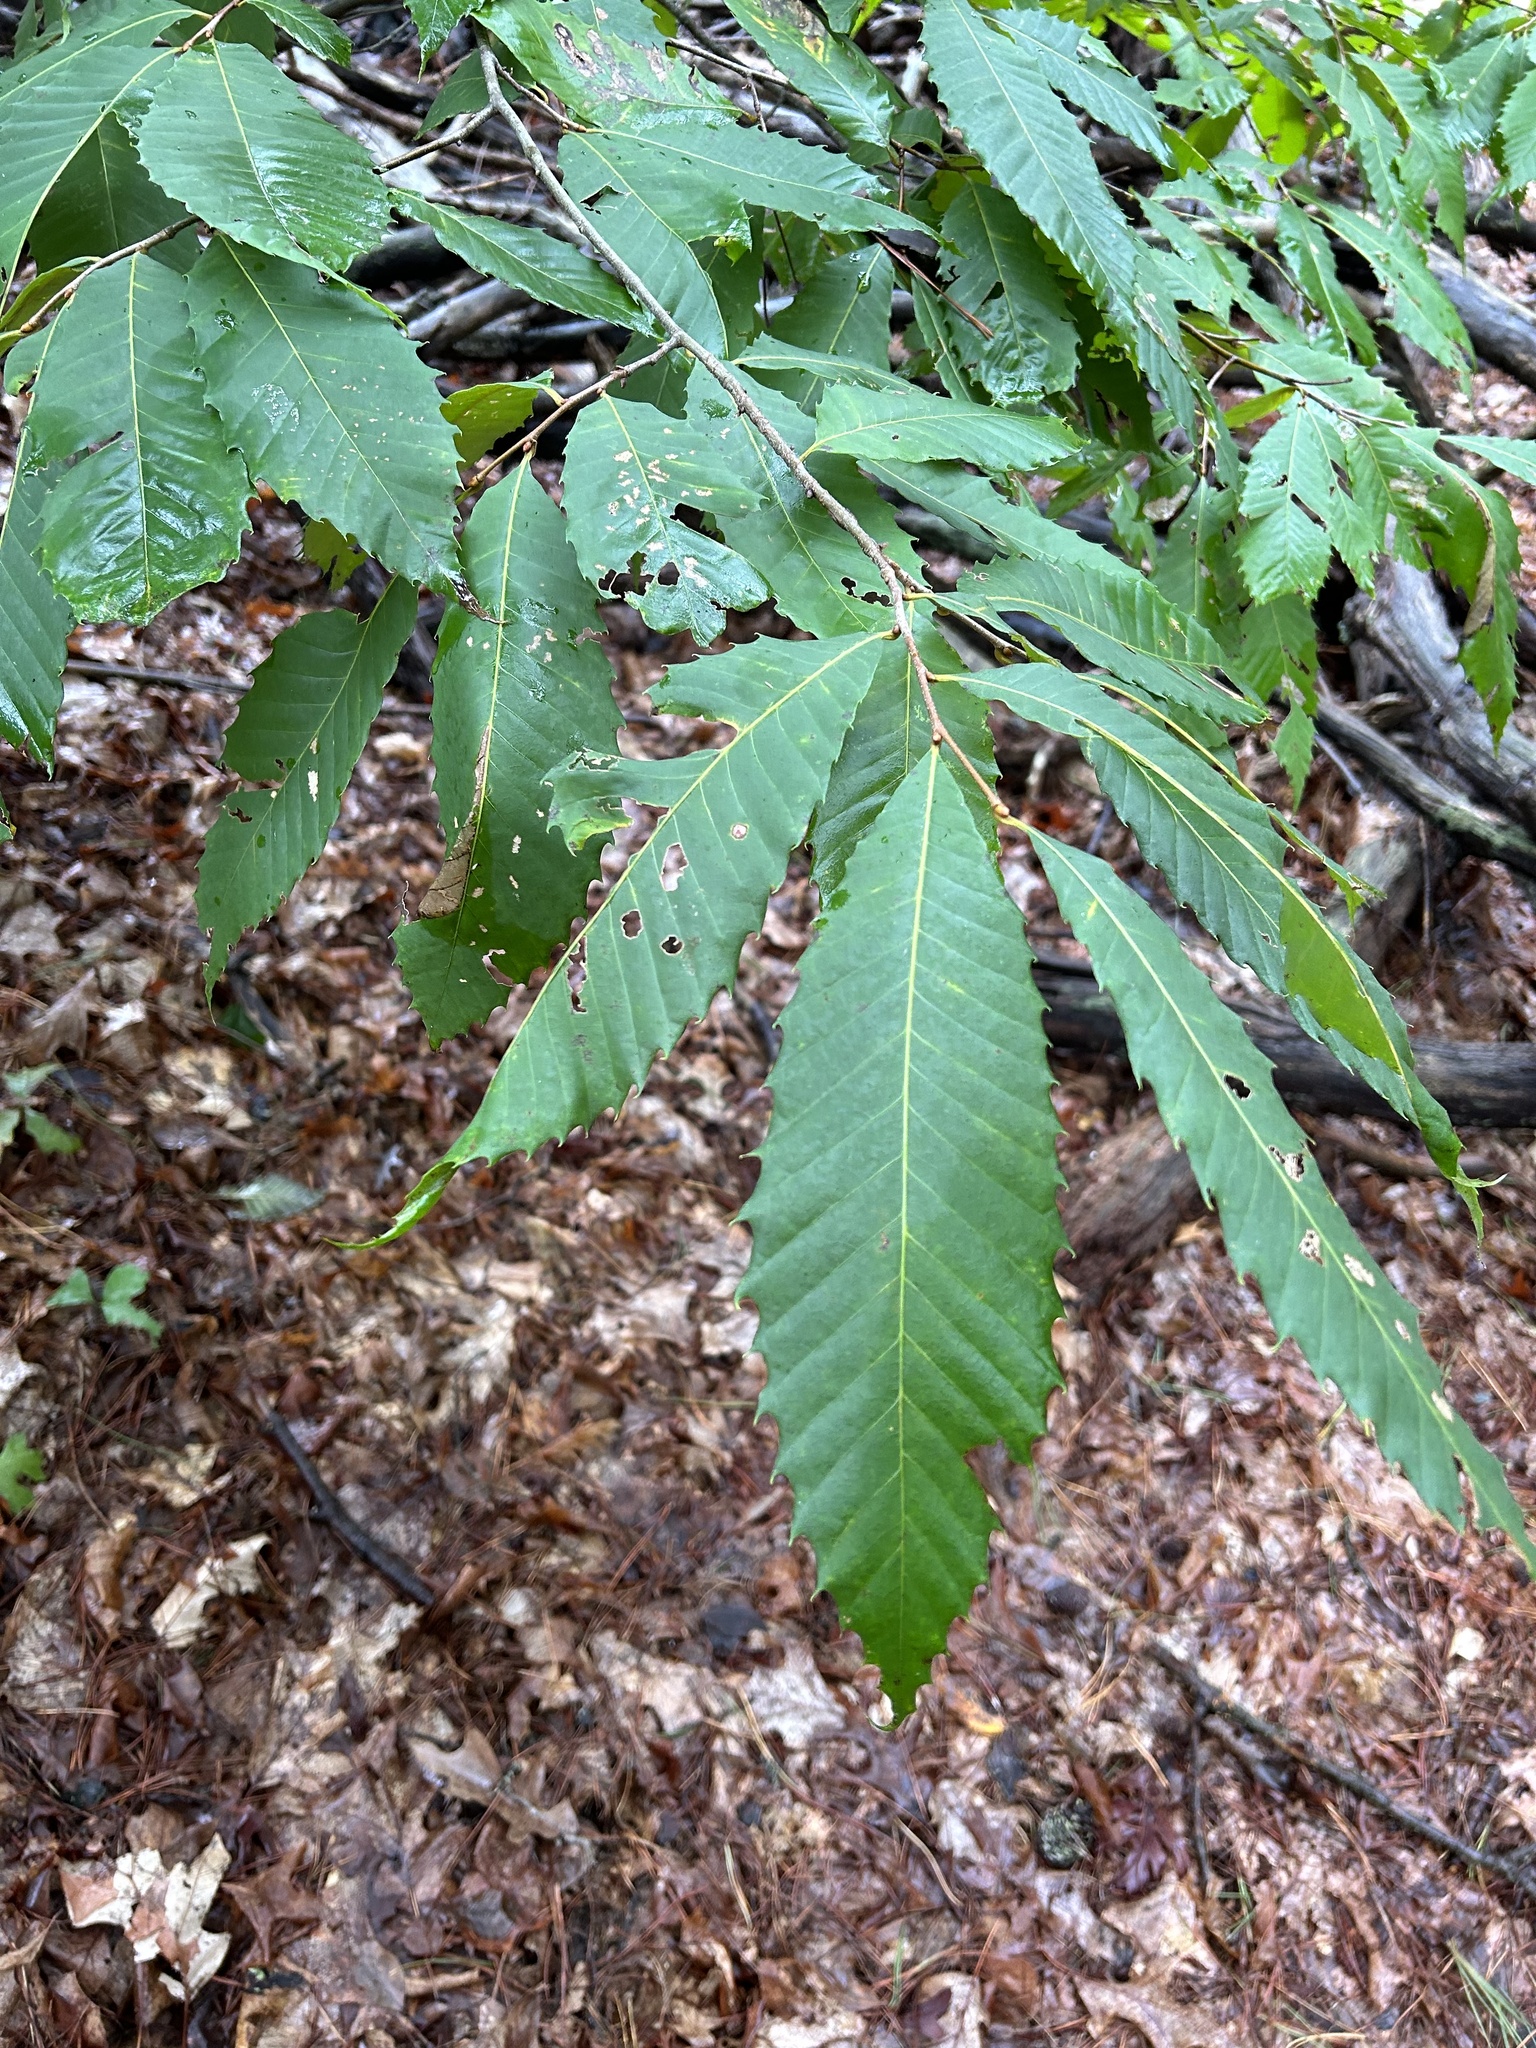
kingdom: Plantae
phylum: Tracheophyta
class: Magnoliopsida
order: Fagales
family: Fagaceae
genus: Castanea
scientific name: Castanea dentata
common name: American chestnut
